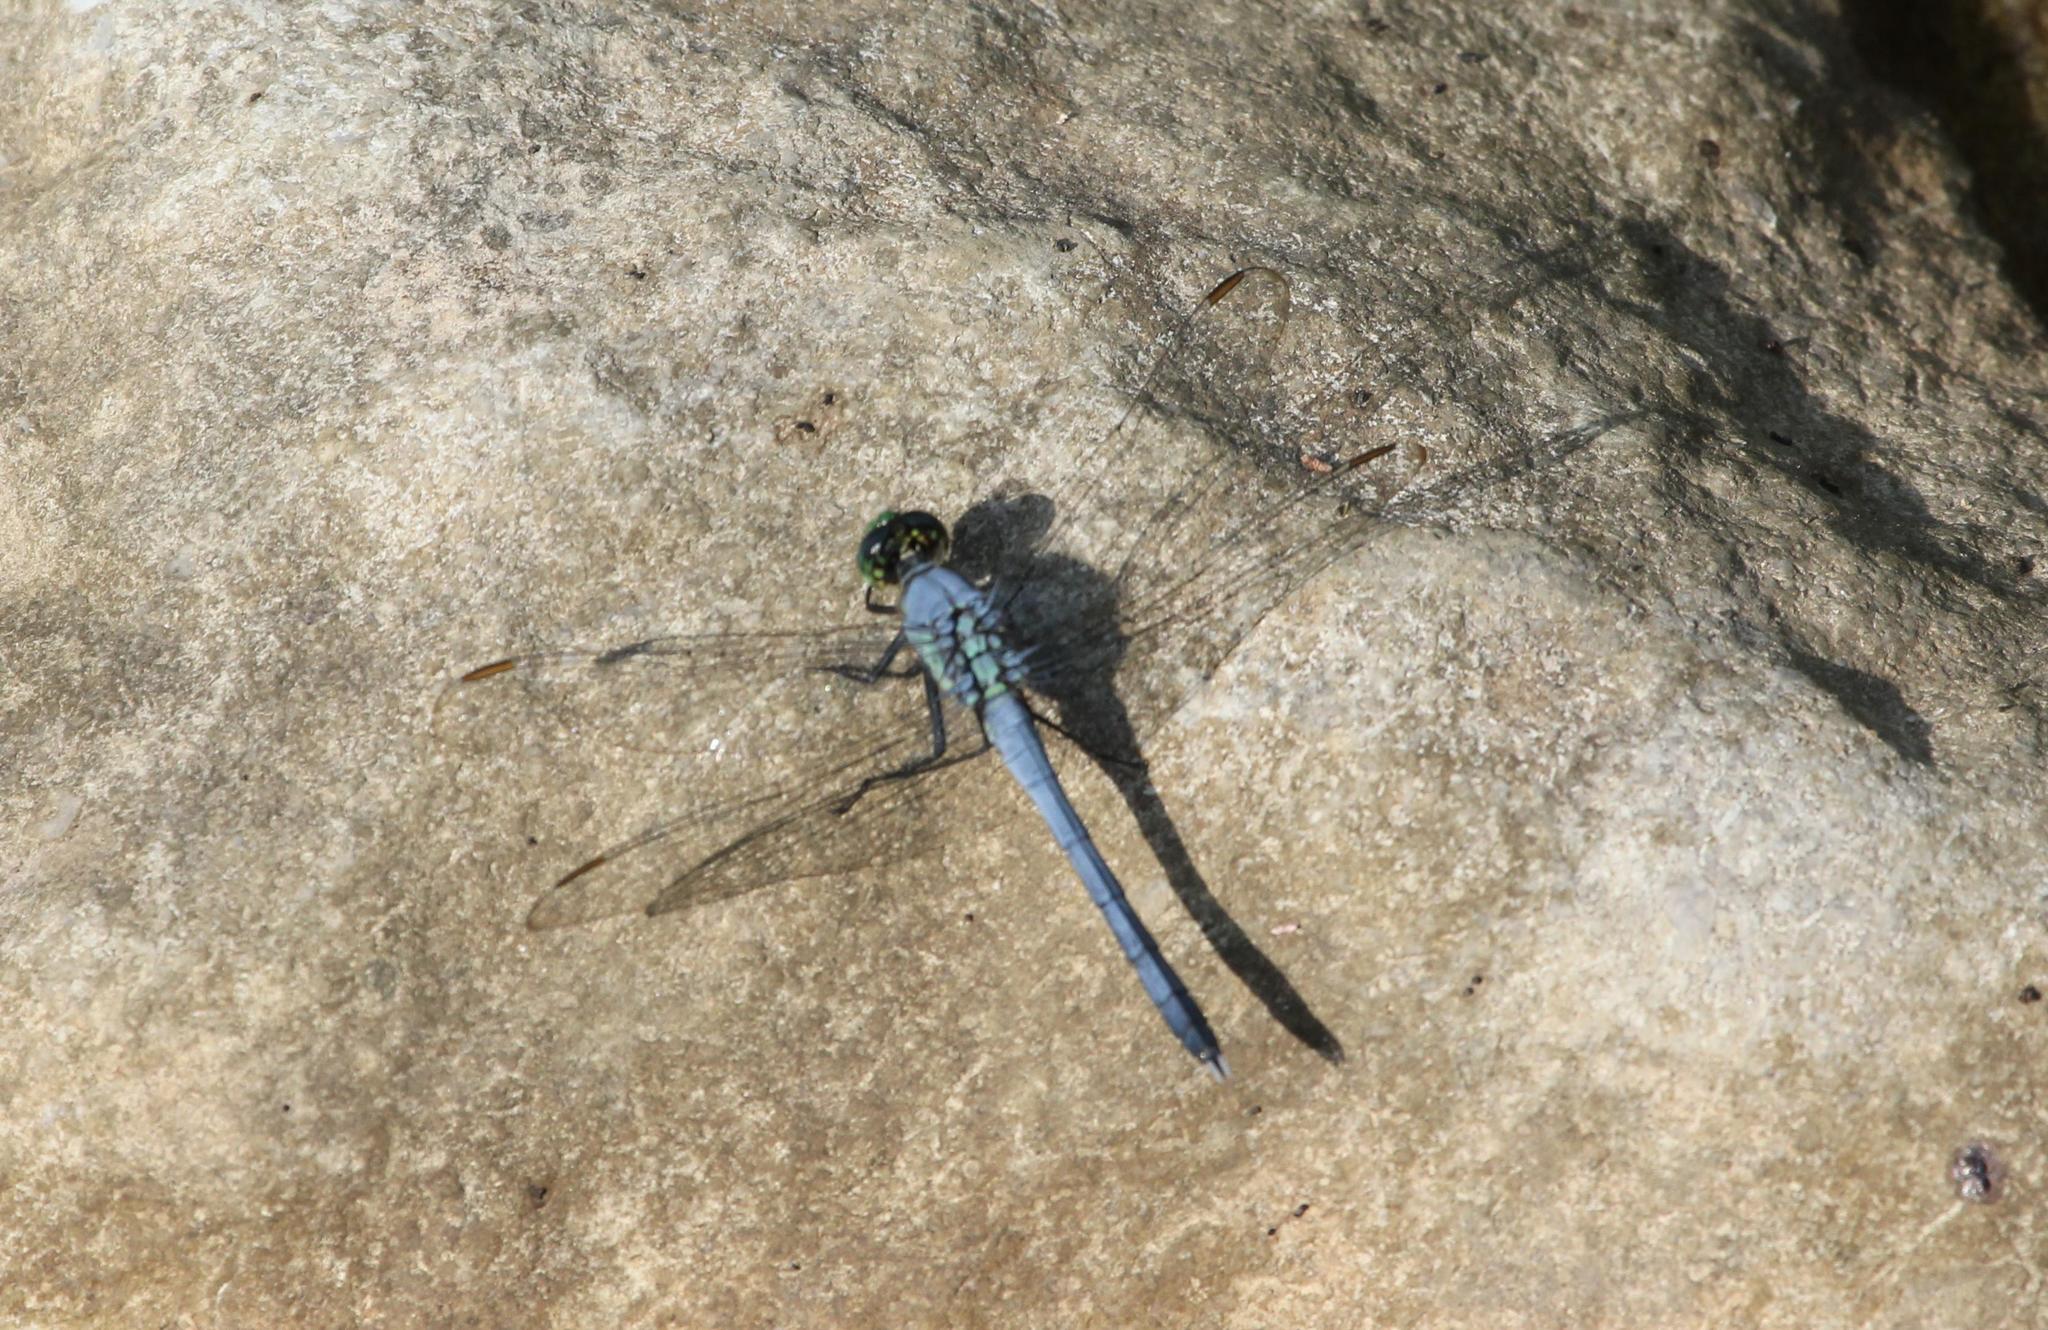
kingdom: Animalia
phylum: Arthropoda
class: Insecta
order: Odonata
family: Libellulidae
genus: Erythemis
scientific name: Erythemis simplicicollis
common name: Eastern pondhawk
